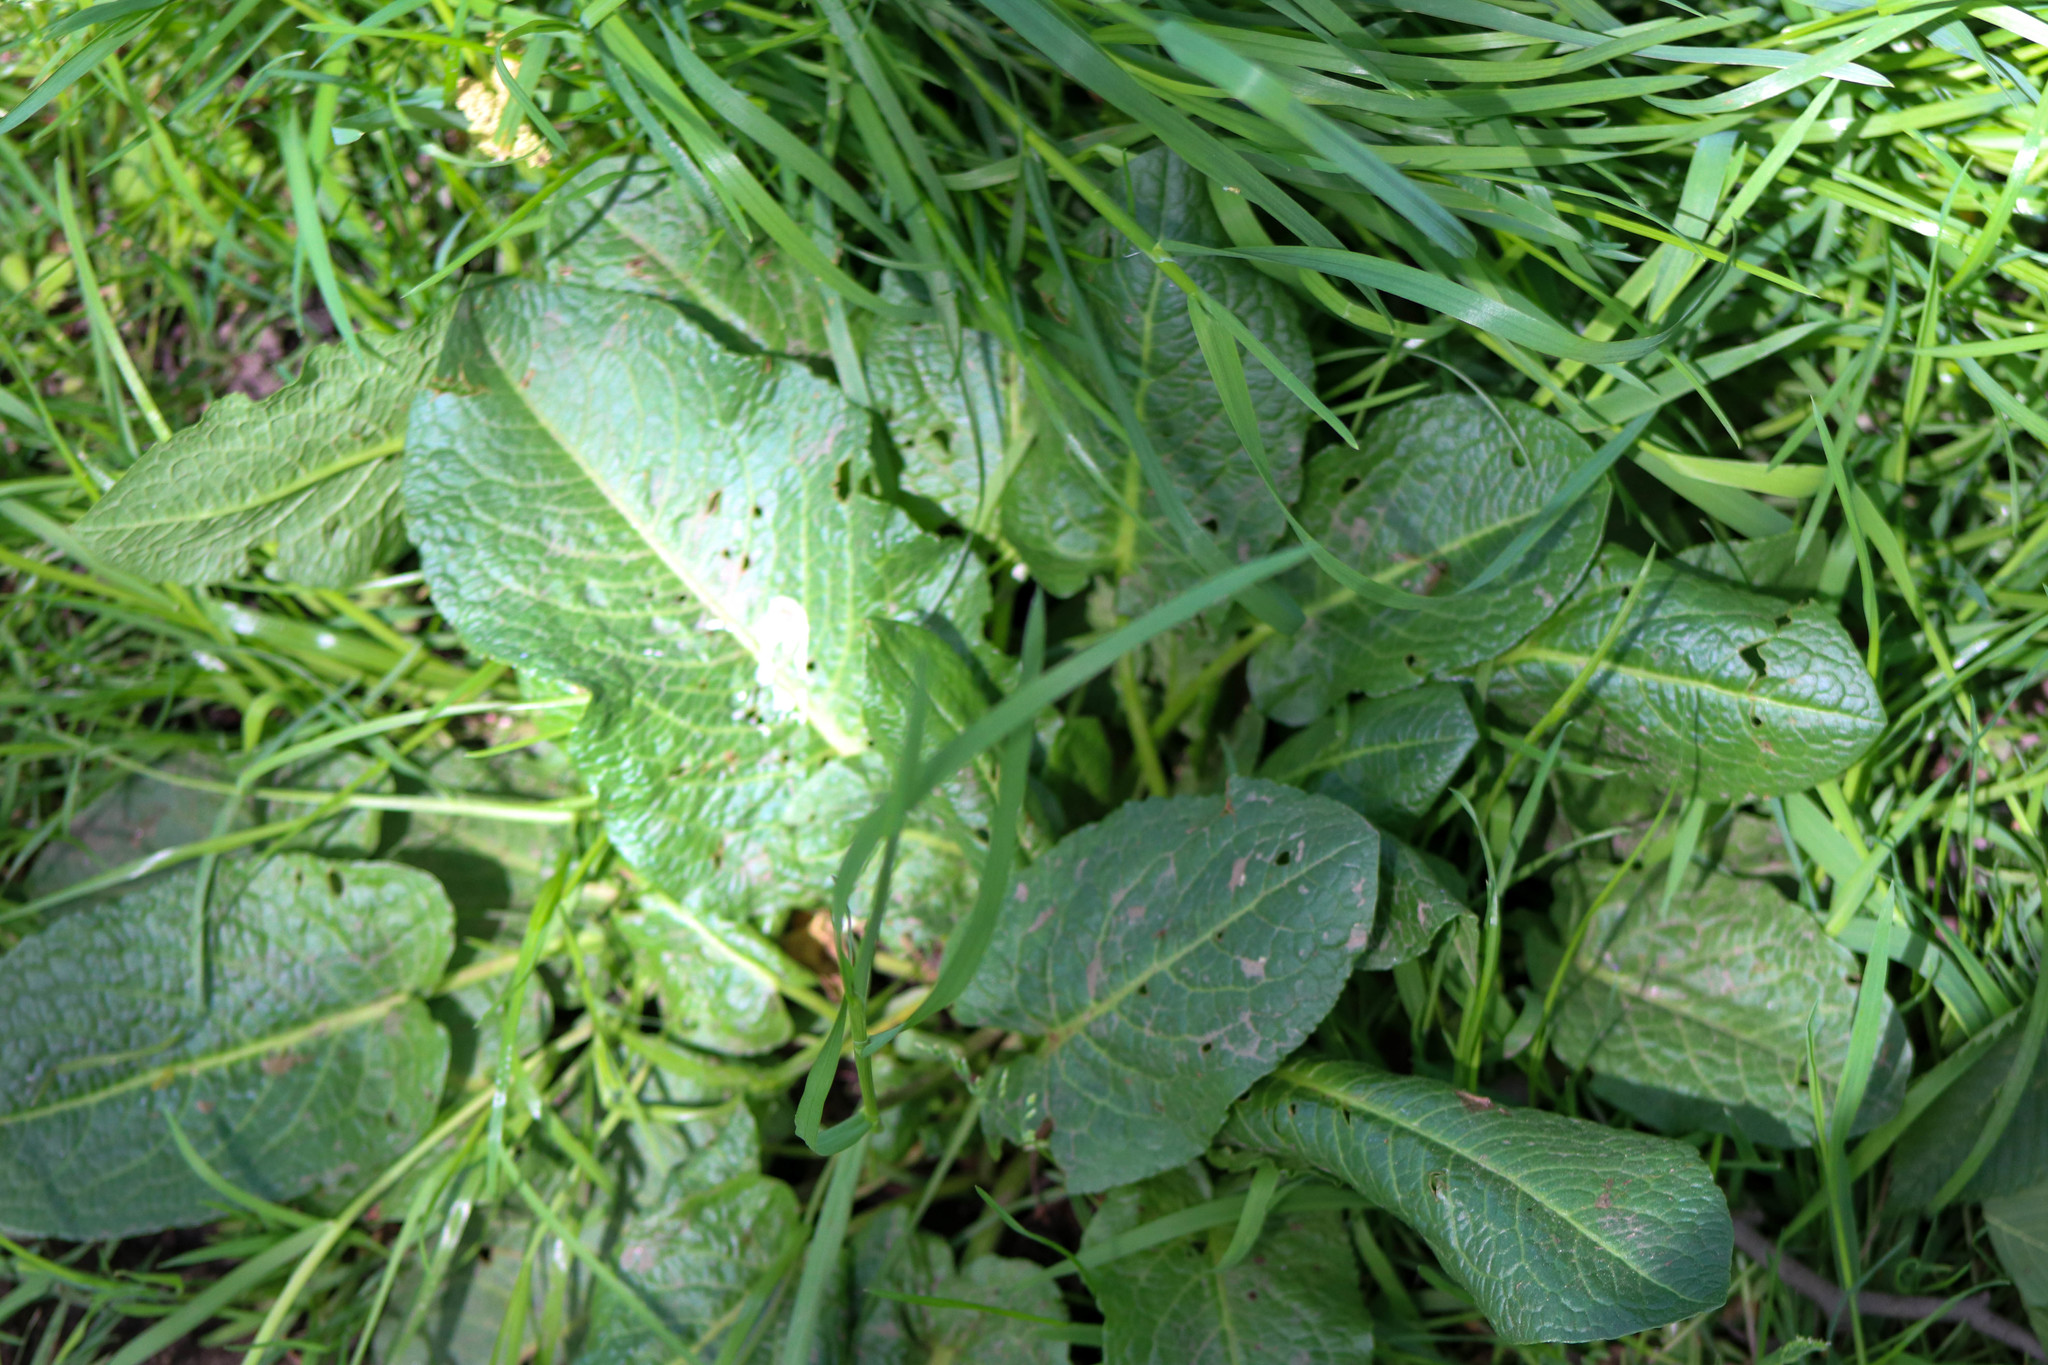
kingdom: Plantae
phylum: Tracheophyta
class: Magnoliopsida
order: Caryophyllales
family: Polygonaceae
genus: Rumex
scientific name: Rumex obtusifolius
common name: Bitter dock
